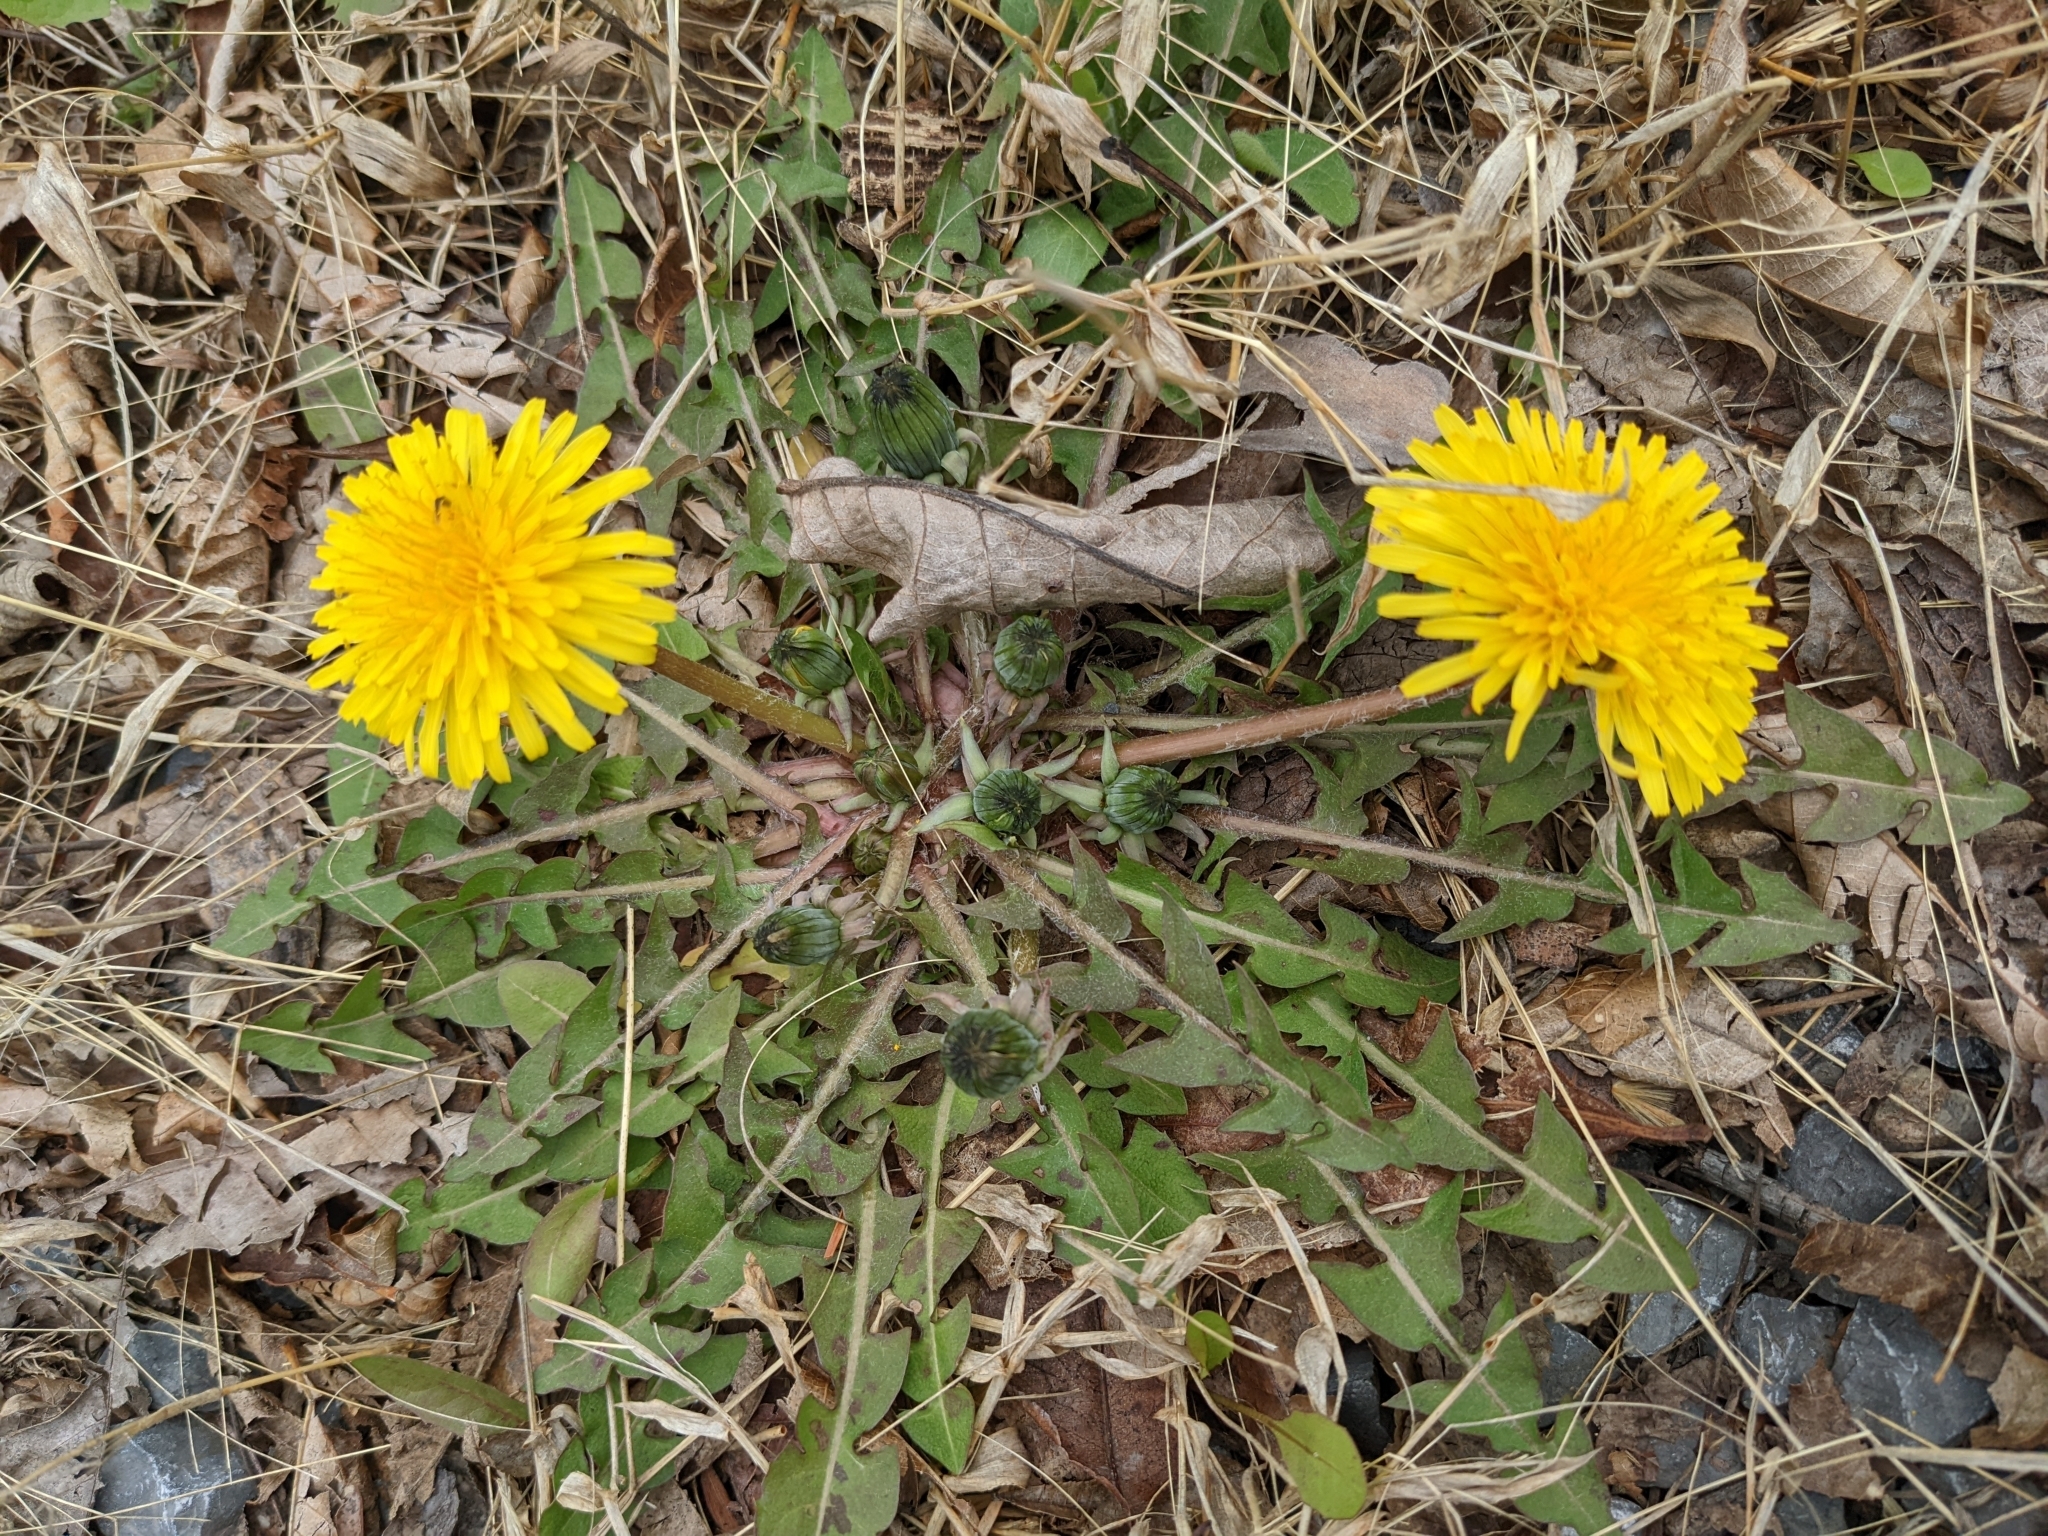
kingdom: Plantae
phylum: Tracheophyta
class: Magnoliopsida
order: Asterales
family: Asteraceae
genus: Taraxacum
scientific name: Taraxacum
